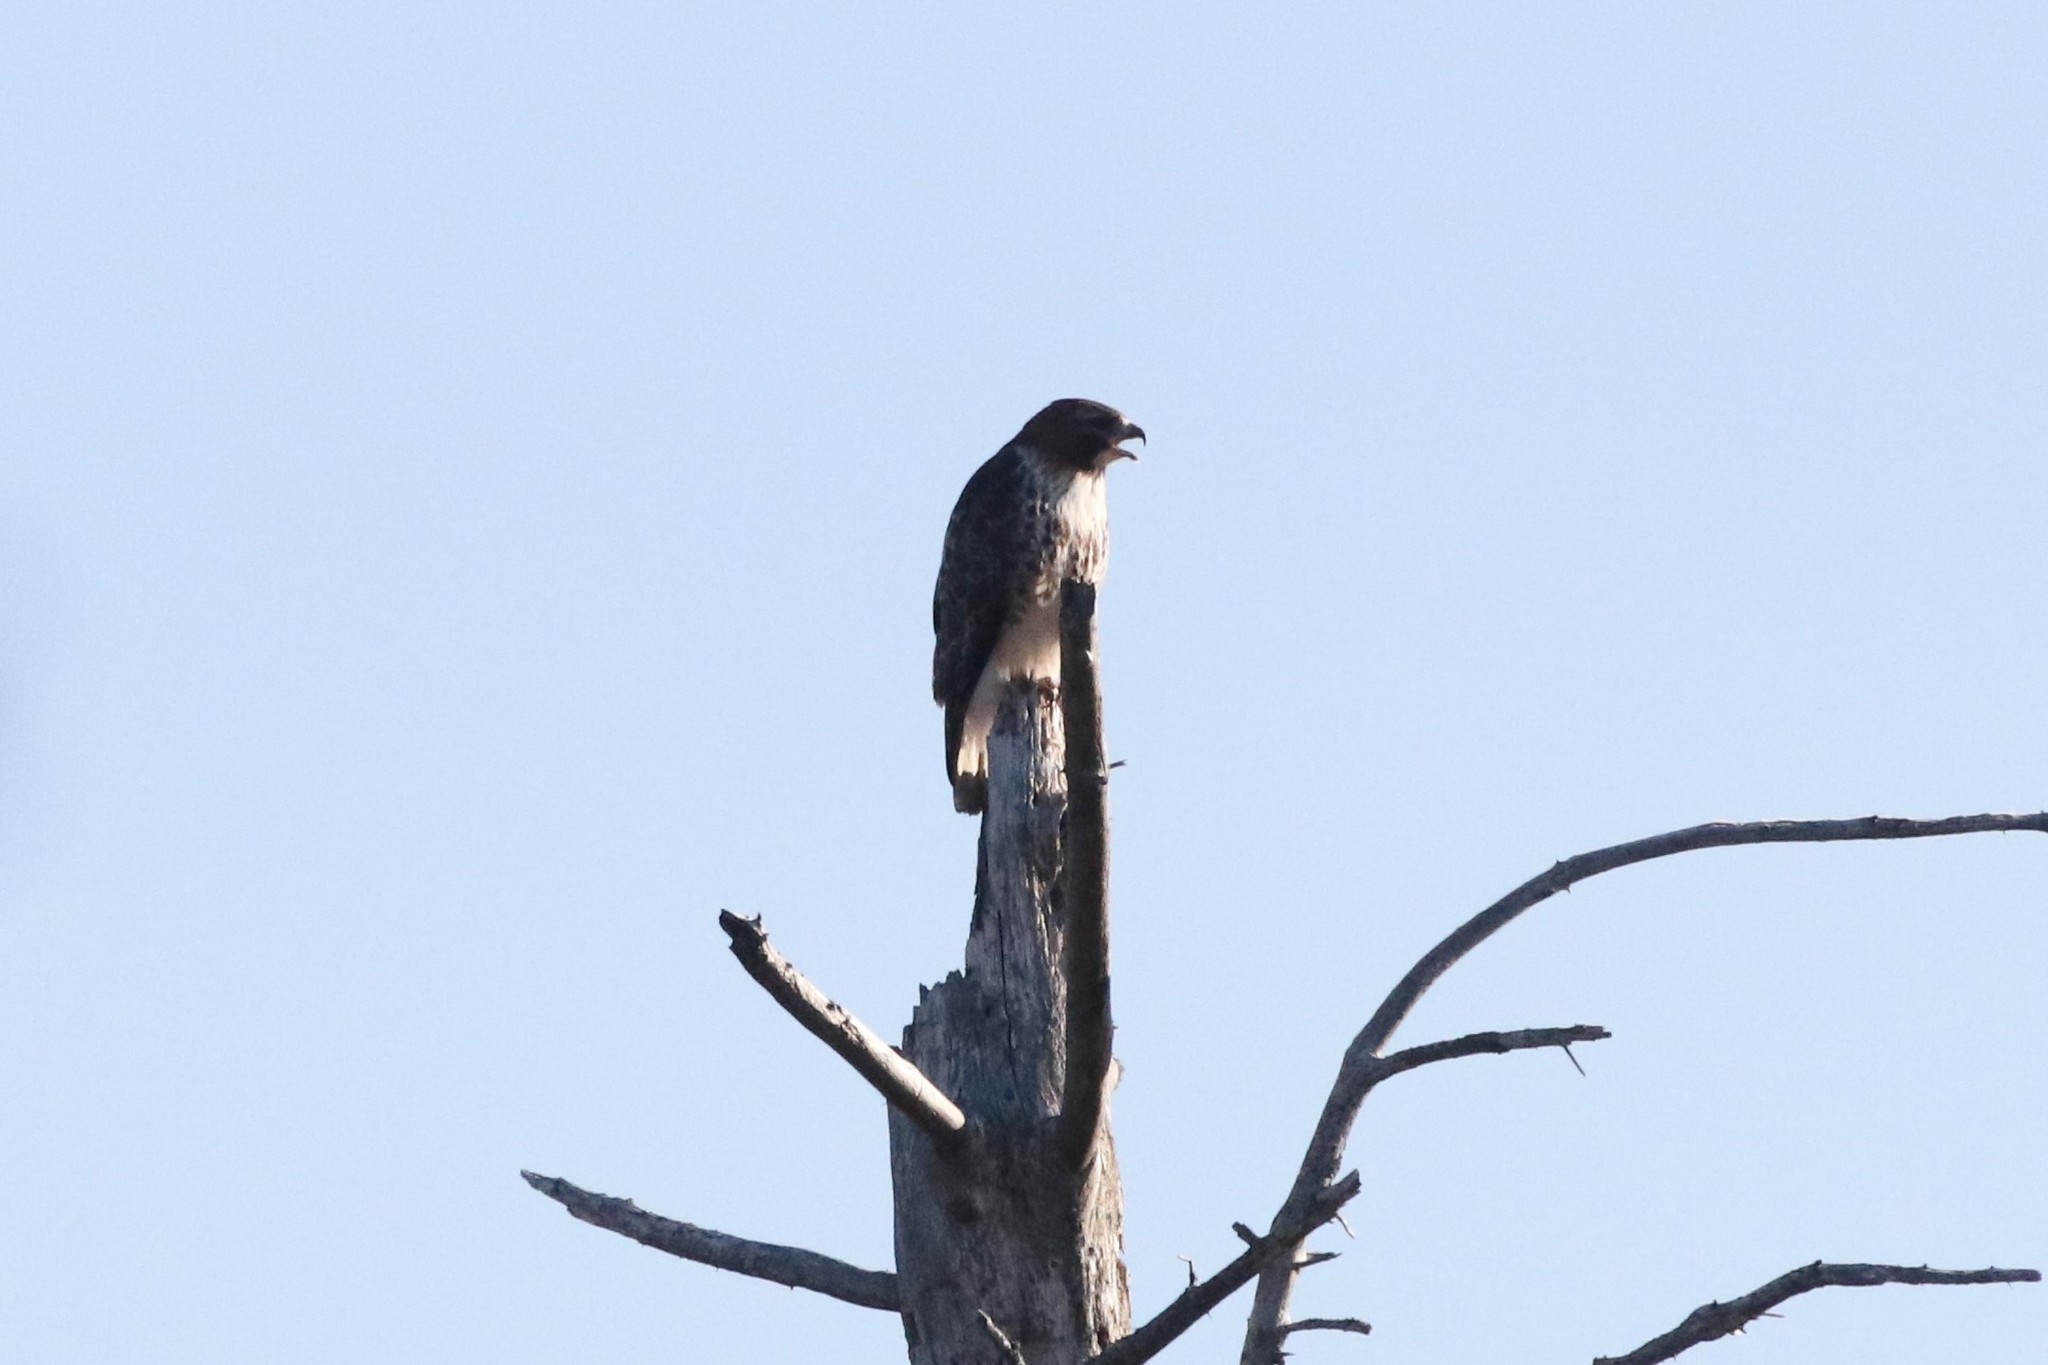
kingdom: Animalia
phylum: Chordata
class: Aves
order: Accipitriformes
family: Accipitridae
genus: Buteo
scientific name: Buteo jamaicensis
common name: Red-tailed hawk
